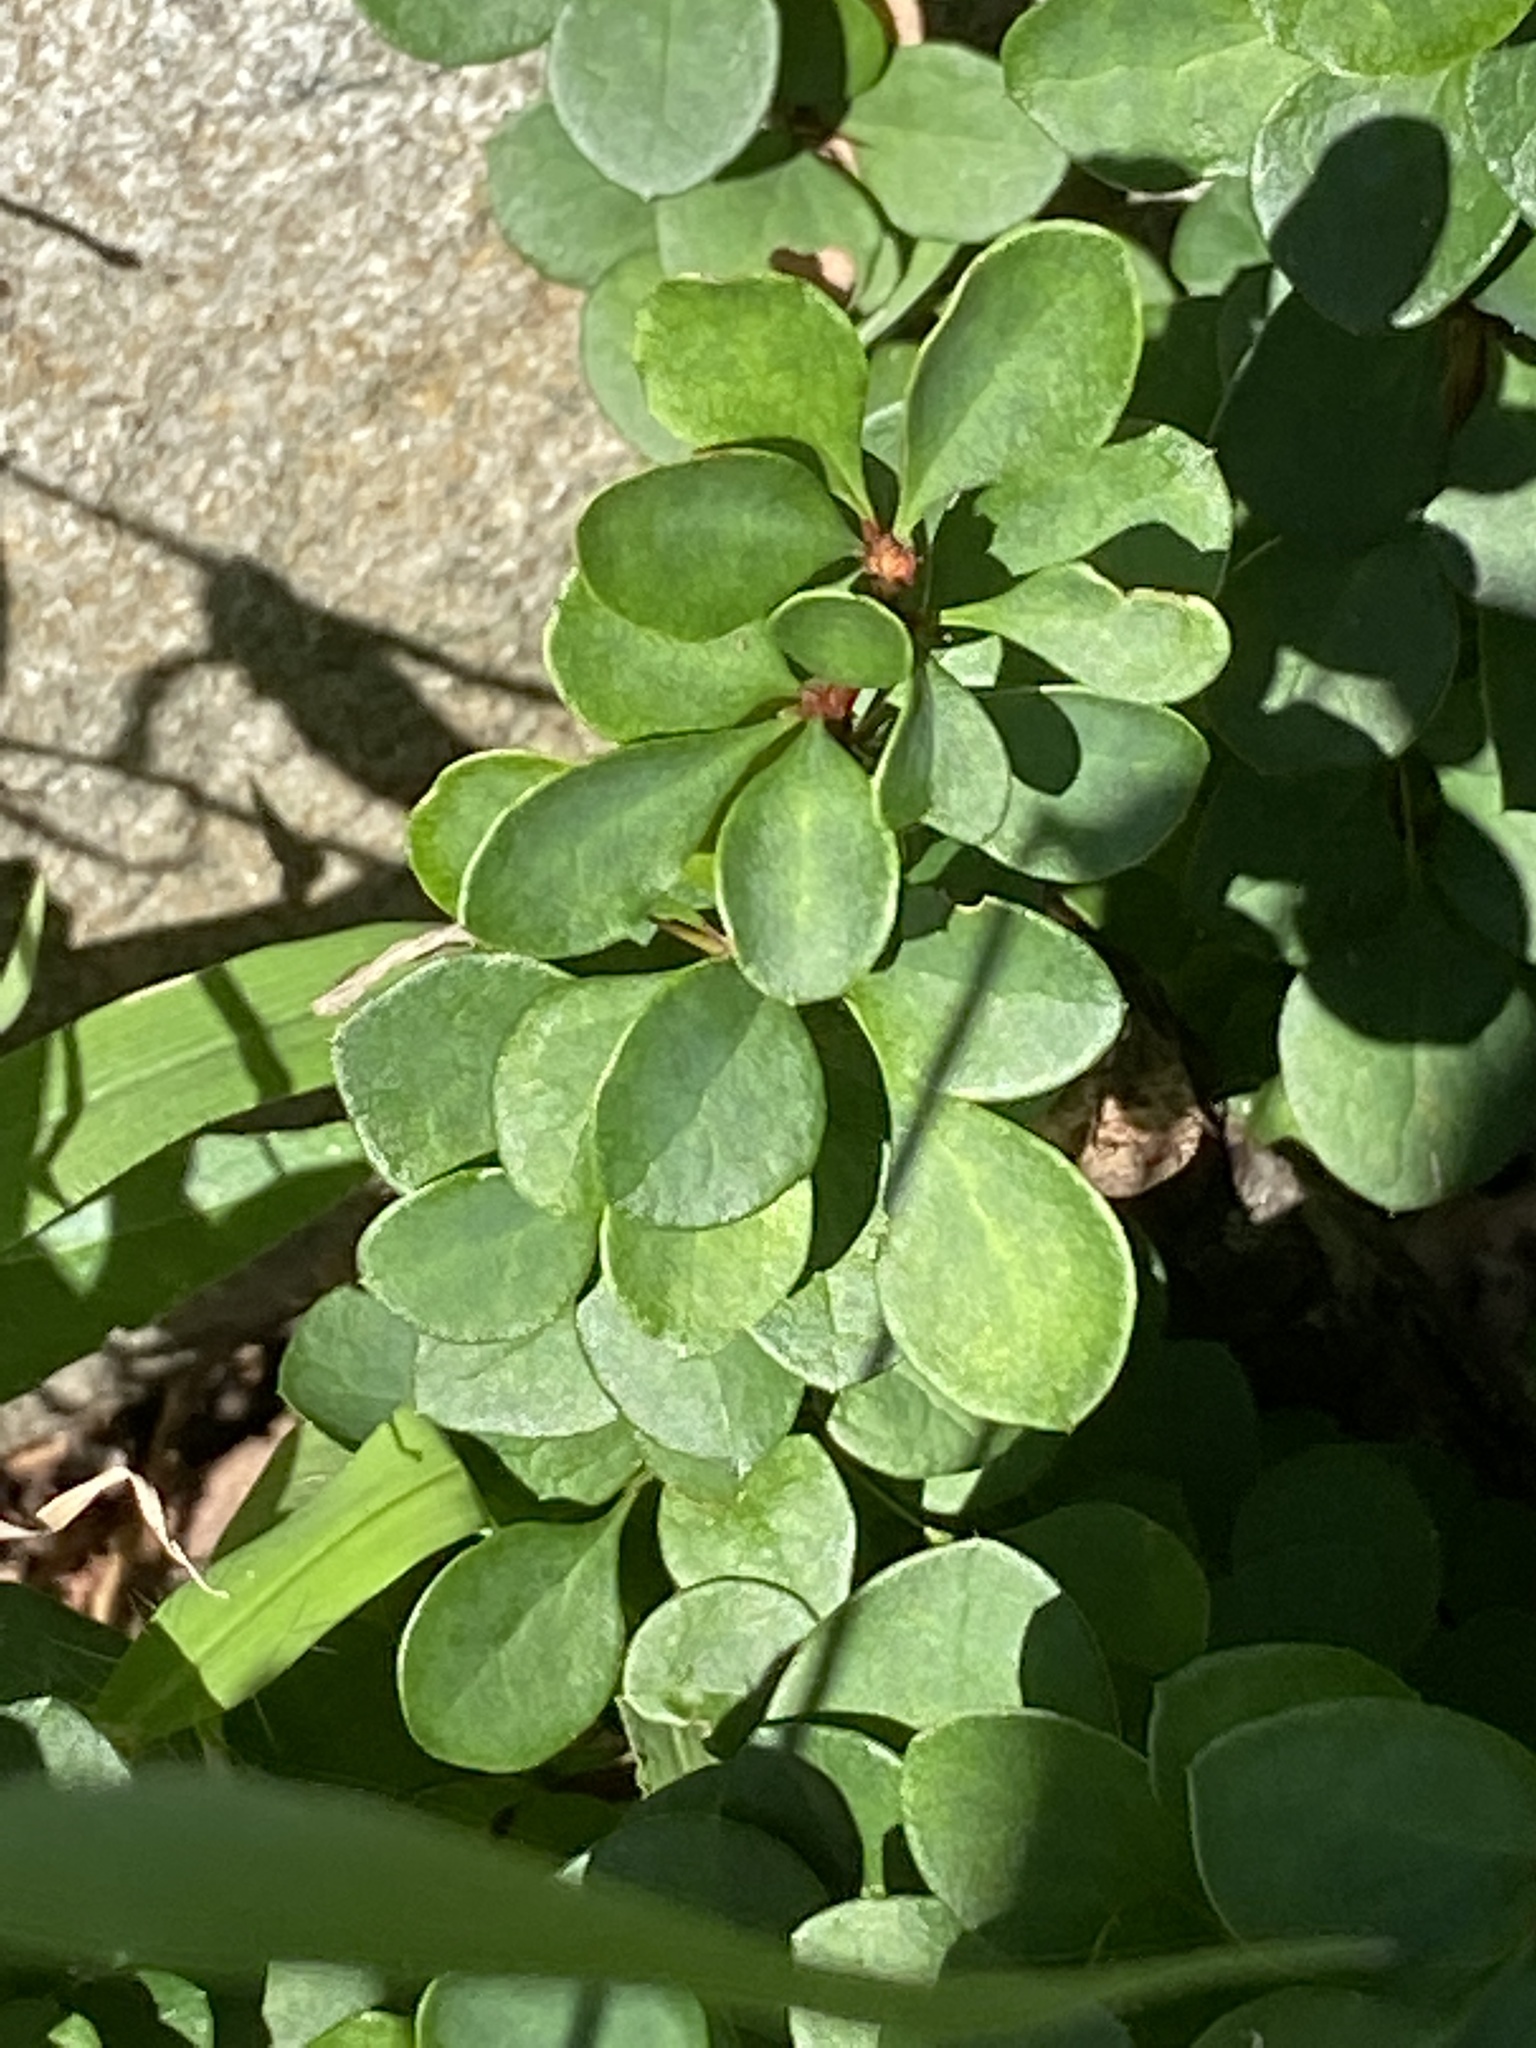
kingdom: Plantae
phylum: Tracheophyta
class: Magnoliopsida
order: Ranunculales
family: Berberidaceae
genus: Berberis
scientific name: Berberis thunbergii
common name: Japanese barberry
